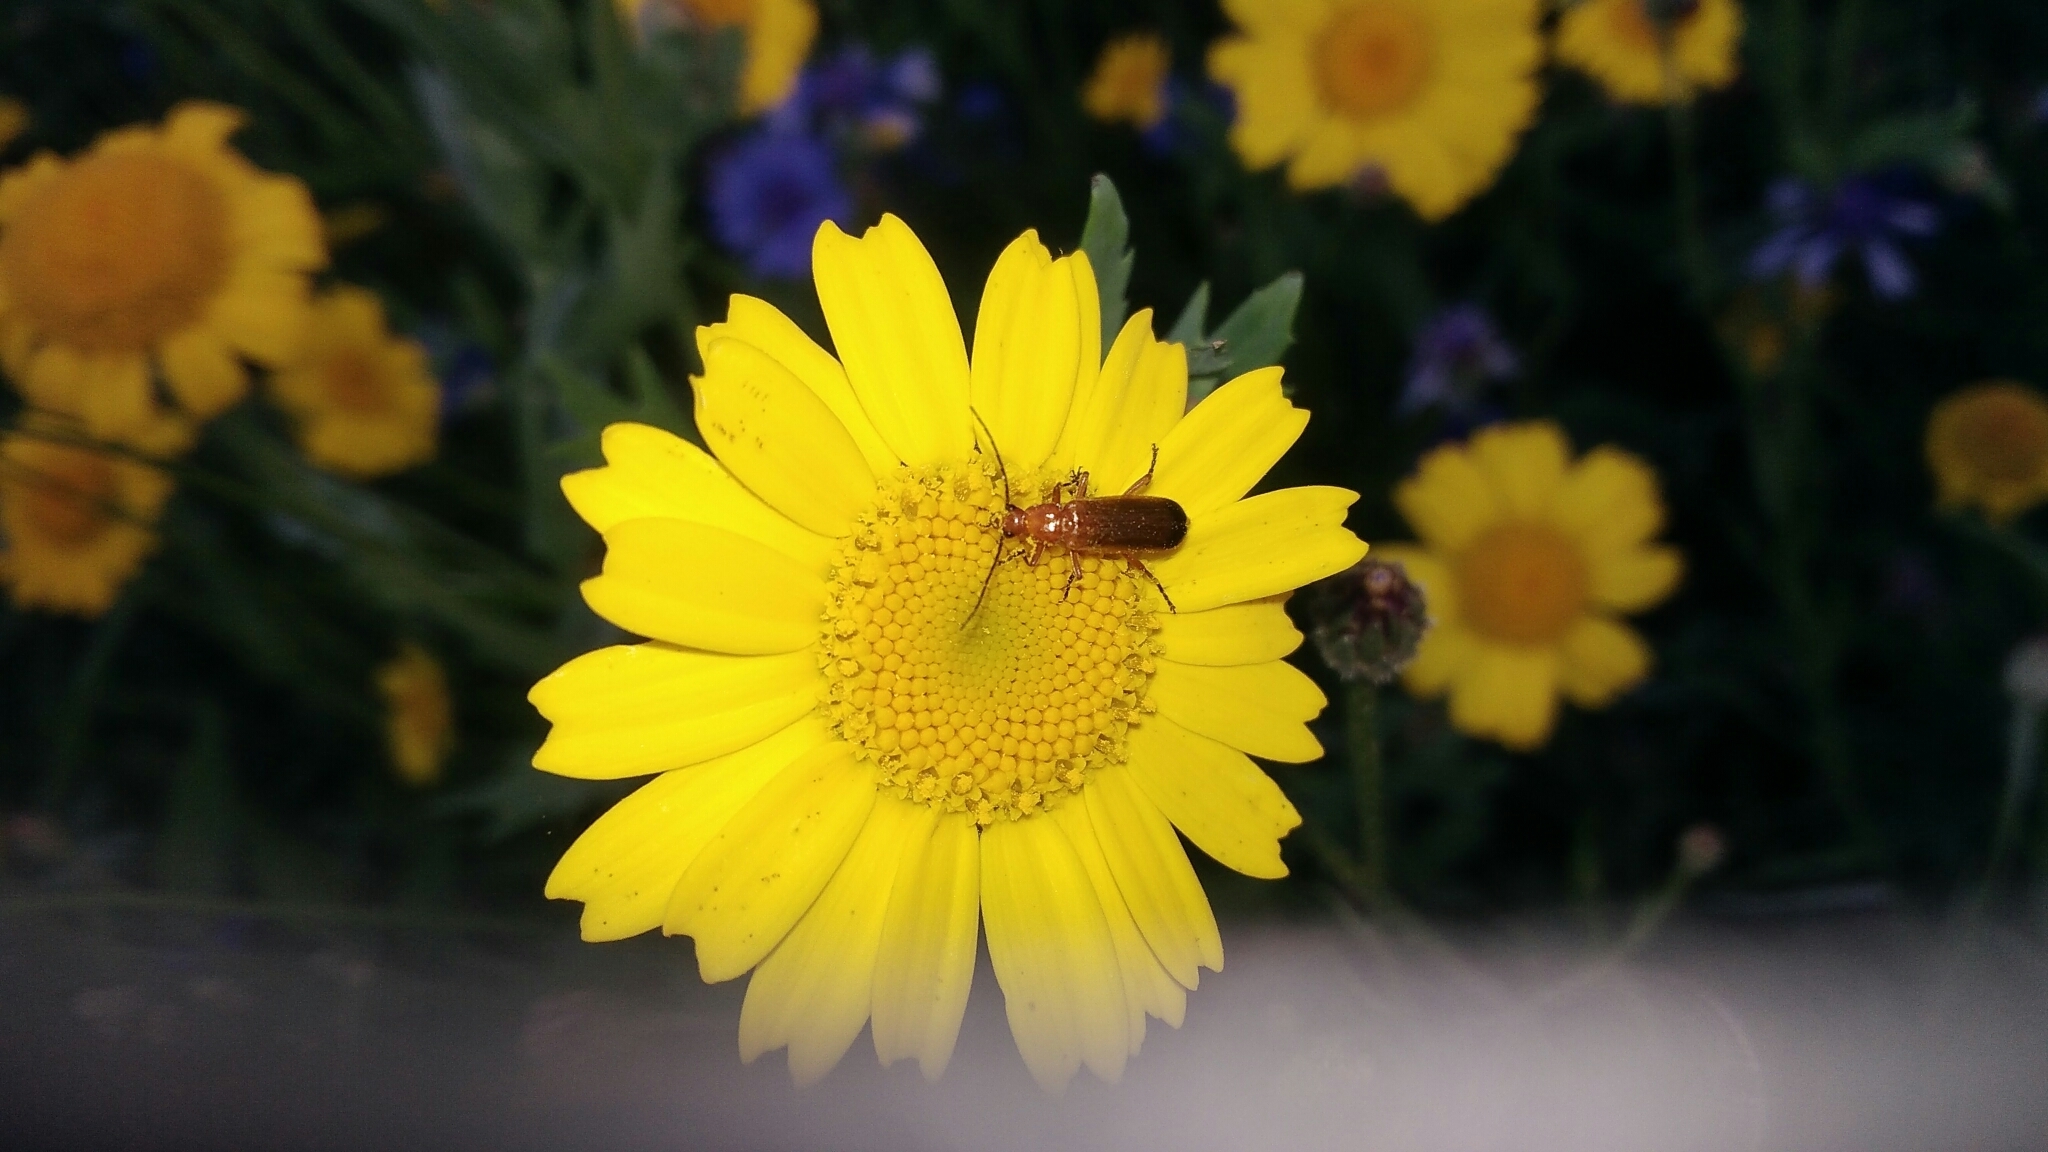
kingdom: Animalia
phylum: Arthropoda
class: Insecta
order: Coleoptera
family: Cantharidae
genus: Rhagonycha
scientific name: Rhagonycha fulva
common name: Common red soldier beetle
